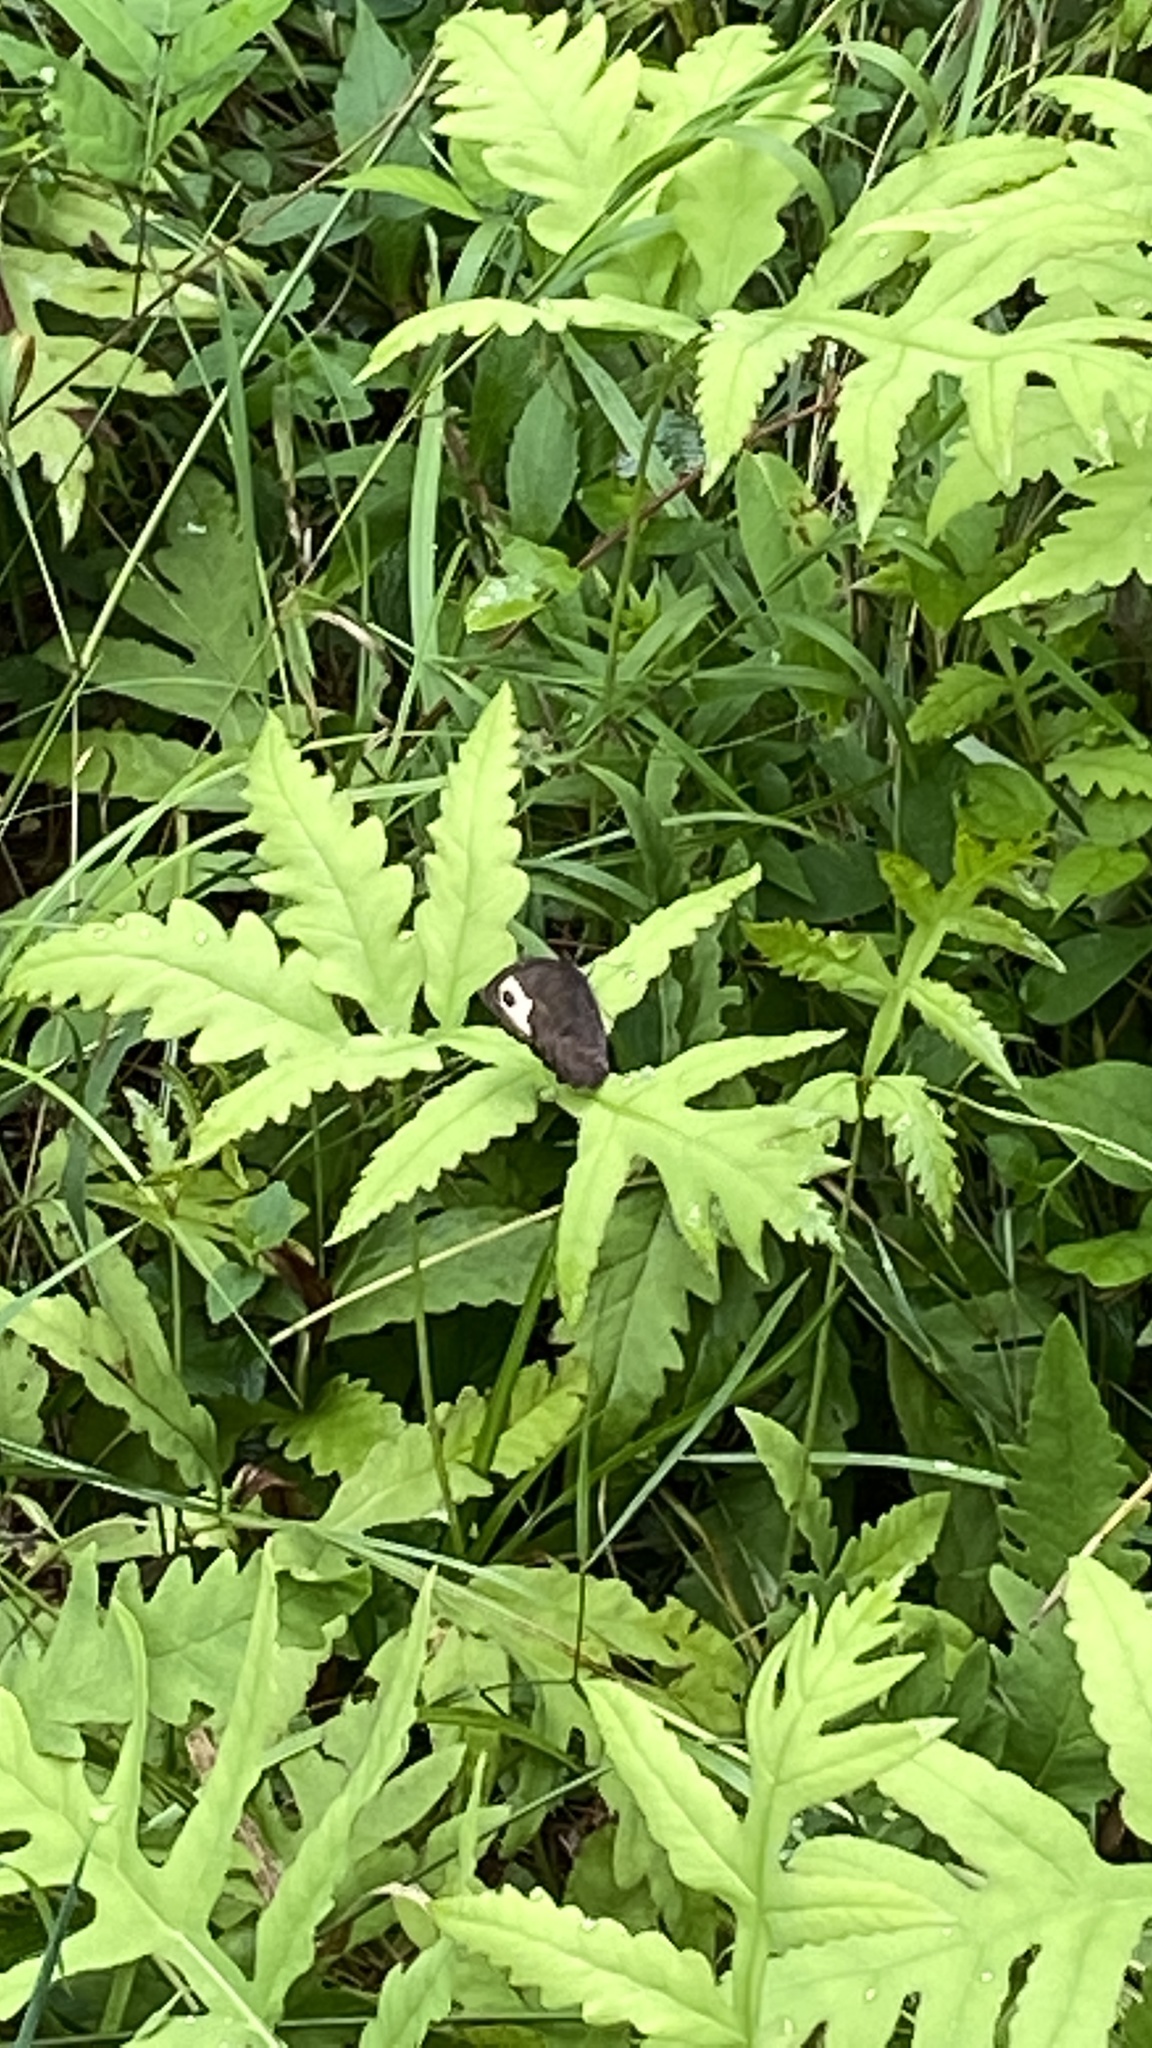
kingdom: Animalia
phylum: Arthropoda
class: Insecta
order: Lepidoptera
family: Nymphalidae
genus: Cercyonis
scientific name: Cercyonis pegala
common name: Common wood-nymph
